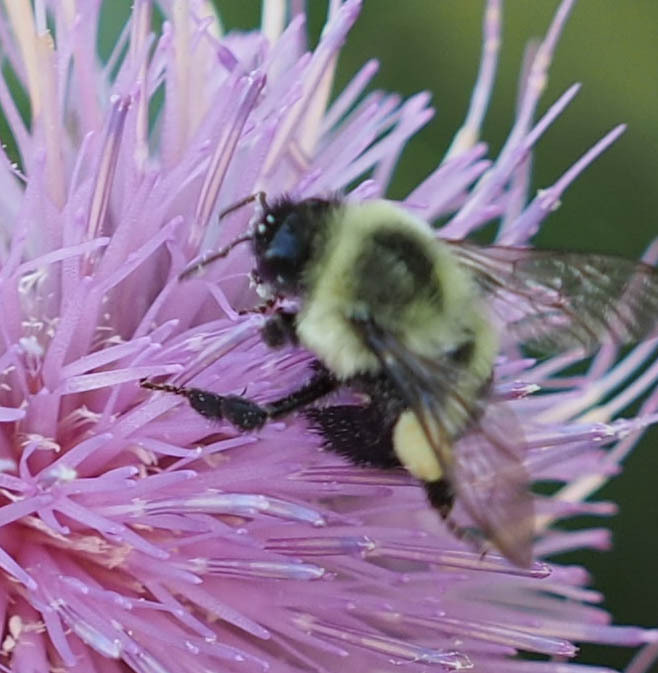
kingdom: Animalia
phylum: Arthropoda
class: Insecta
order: Hymenoptera
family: Apidae
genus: Bombus
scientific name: Bombus impatiens
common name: Common eastern bumble bee
